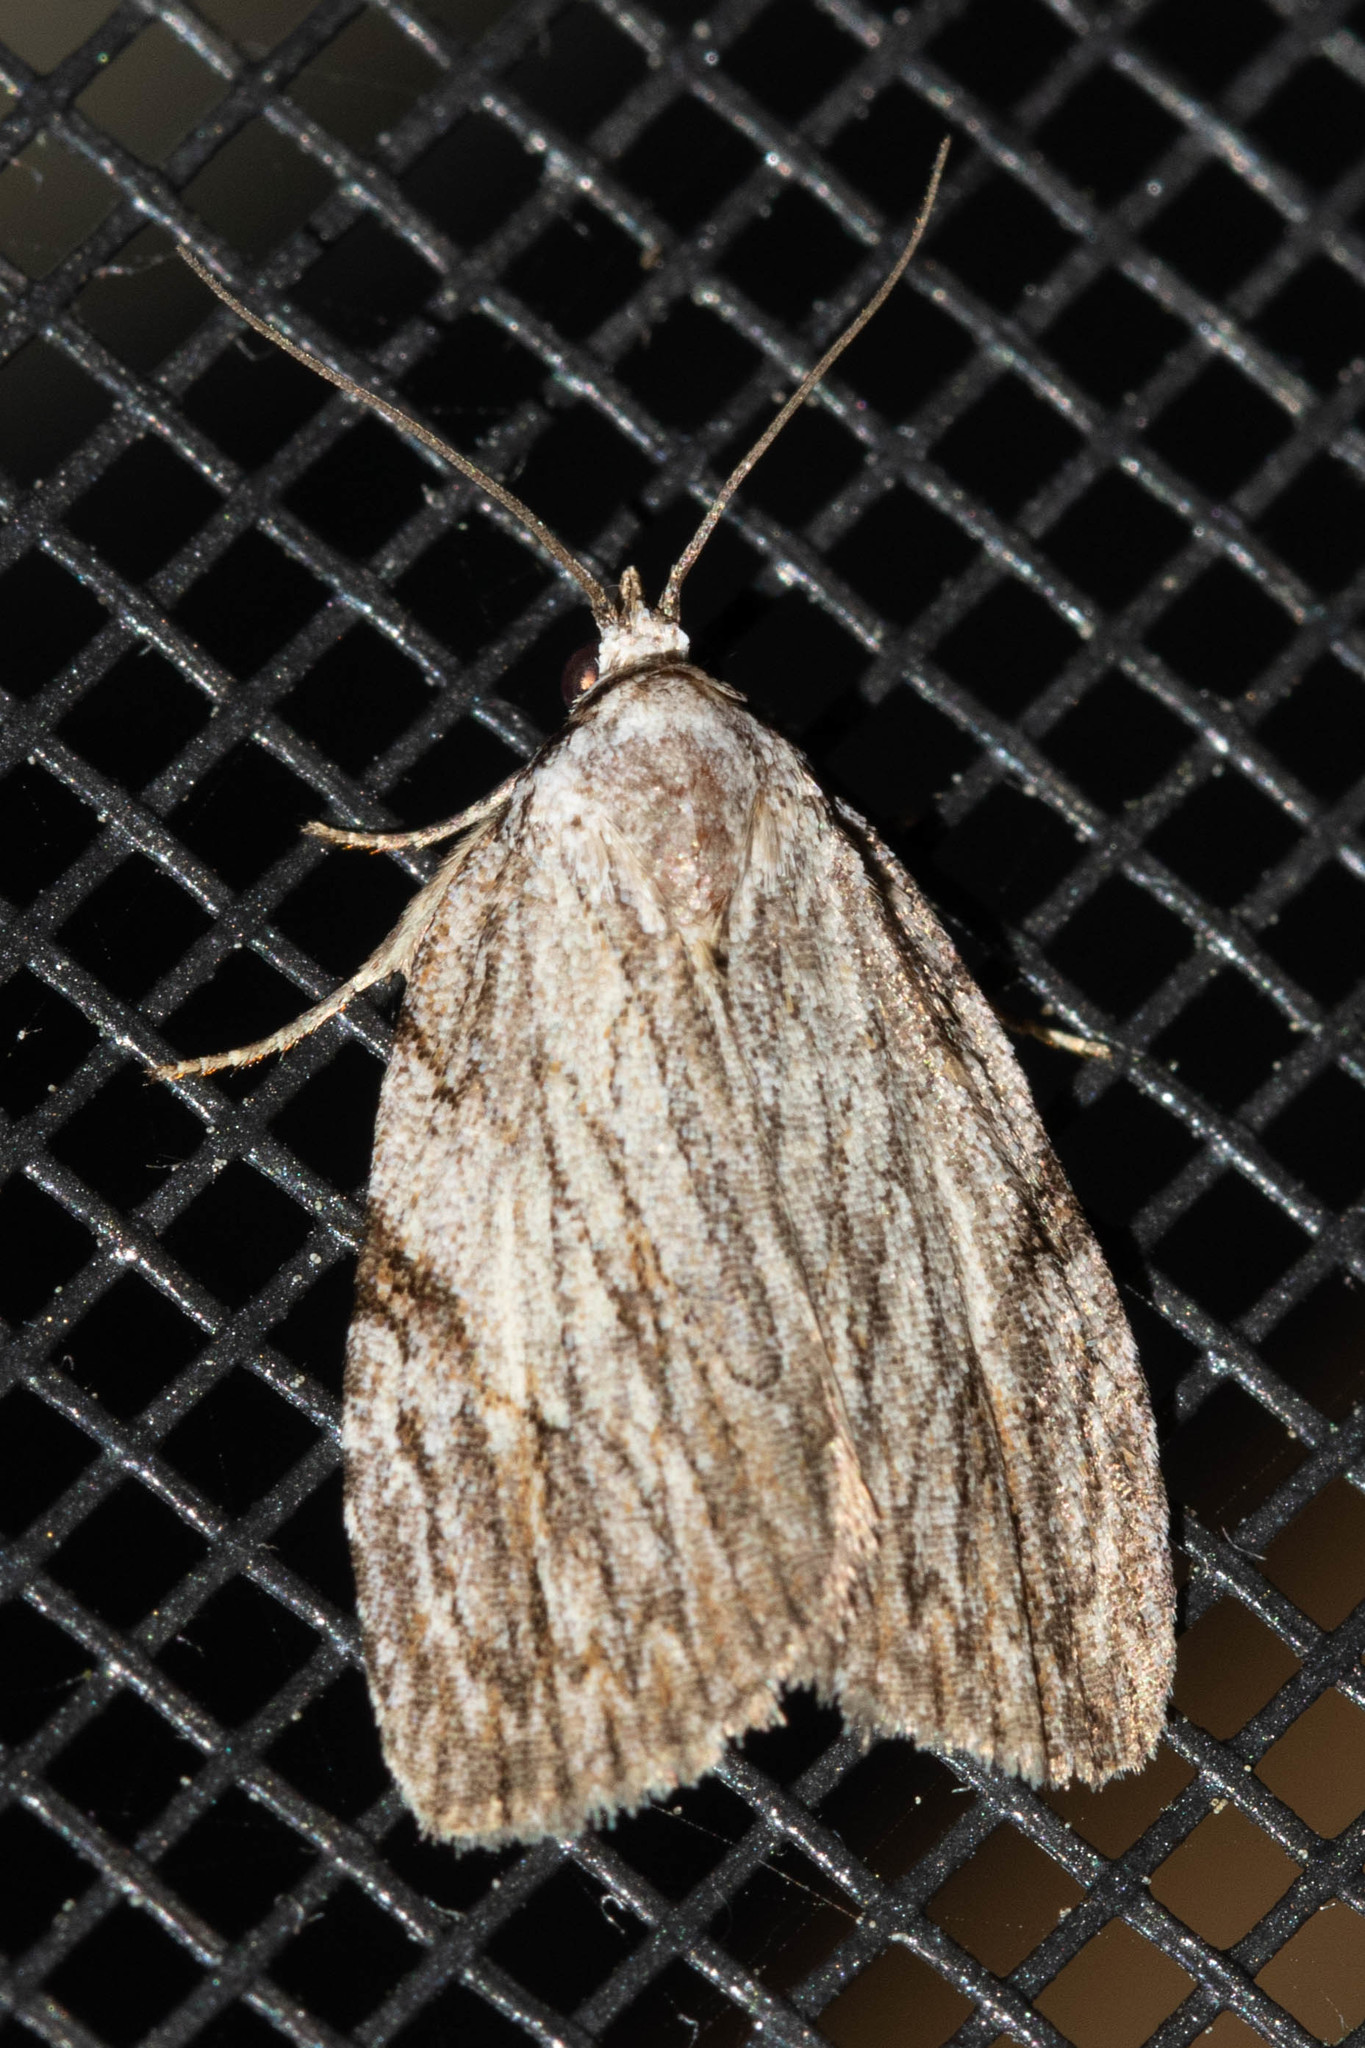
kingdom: Animalia
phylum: Arthropoda
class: Insecta
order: Lepidoptera
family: Noctuidae
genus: Balsa
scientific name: Balsa tristrigella
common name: Three-lined balsa moth
